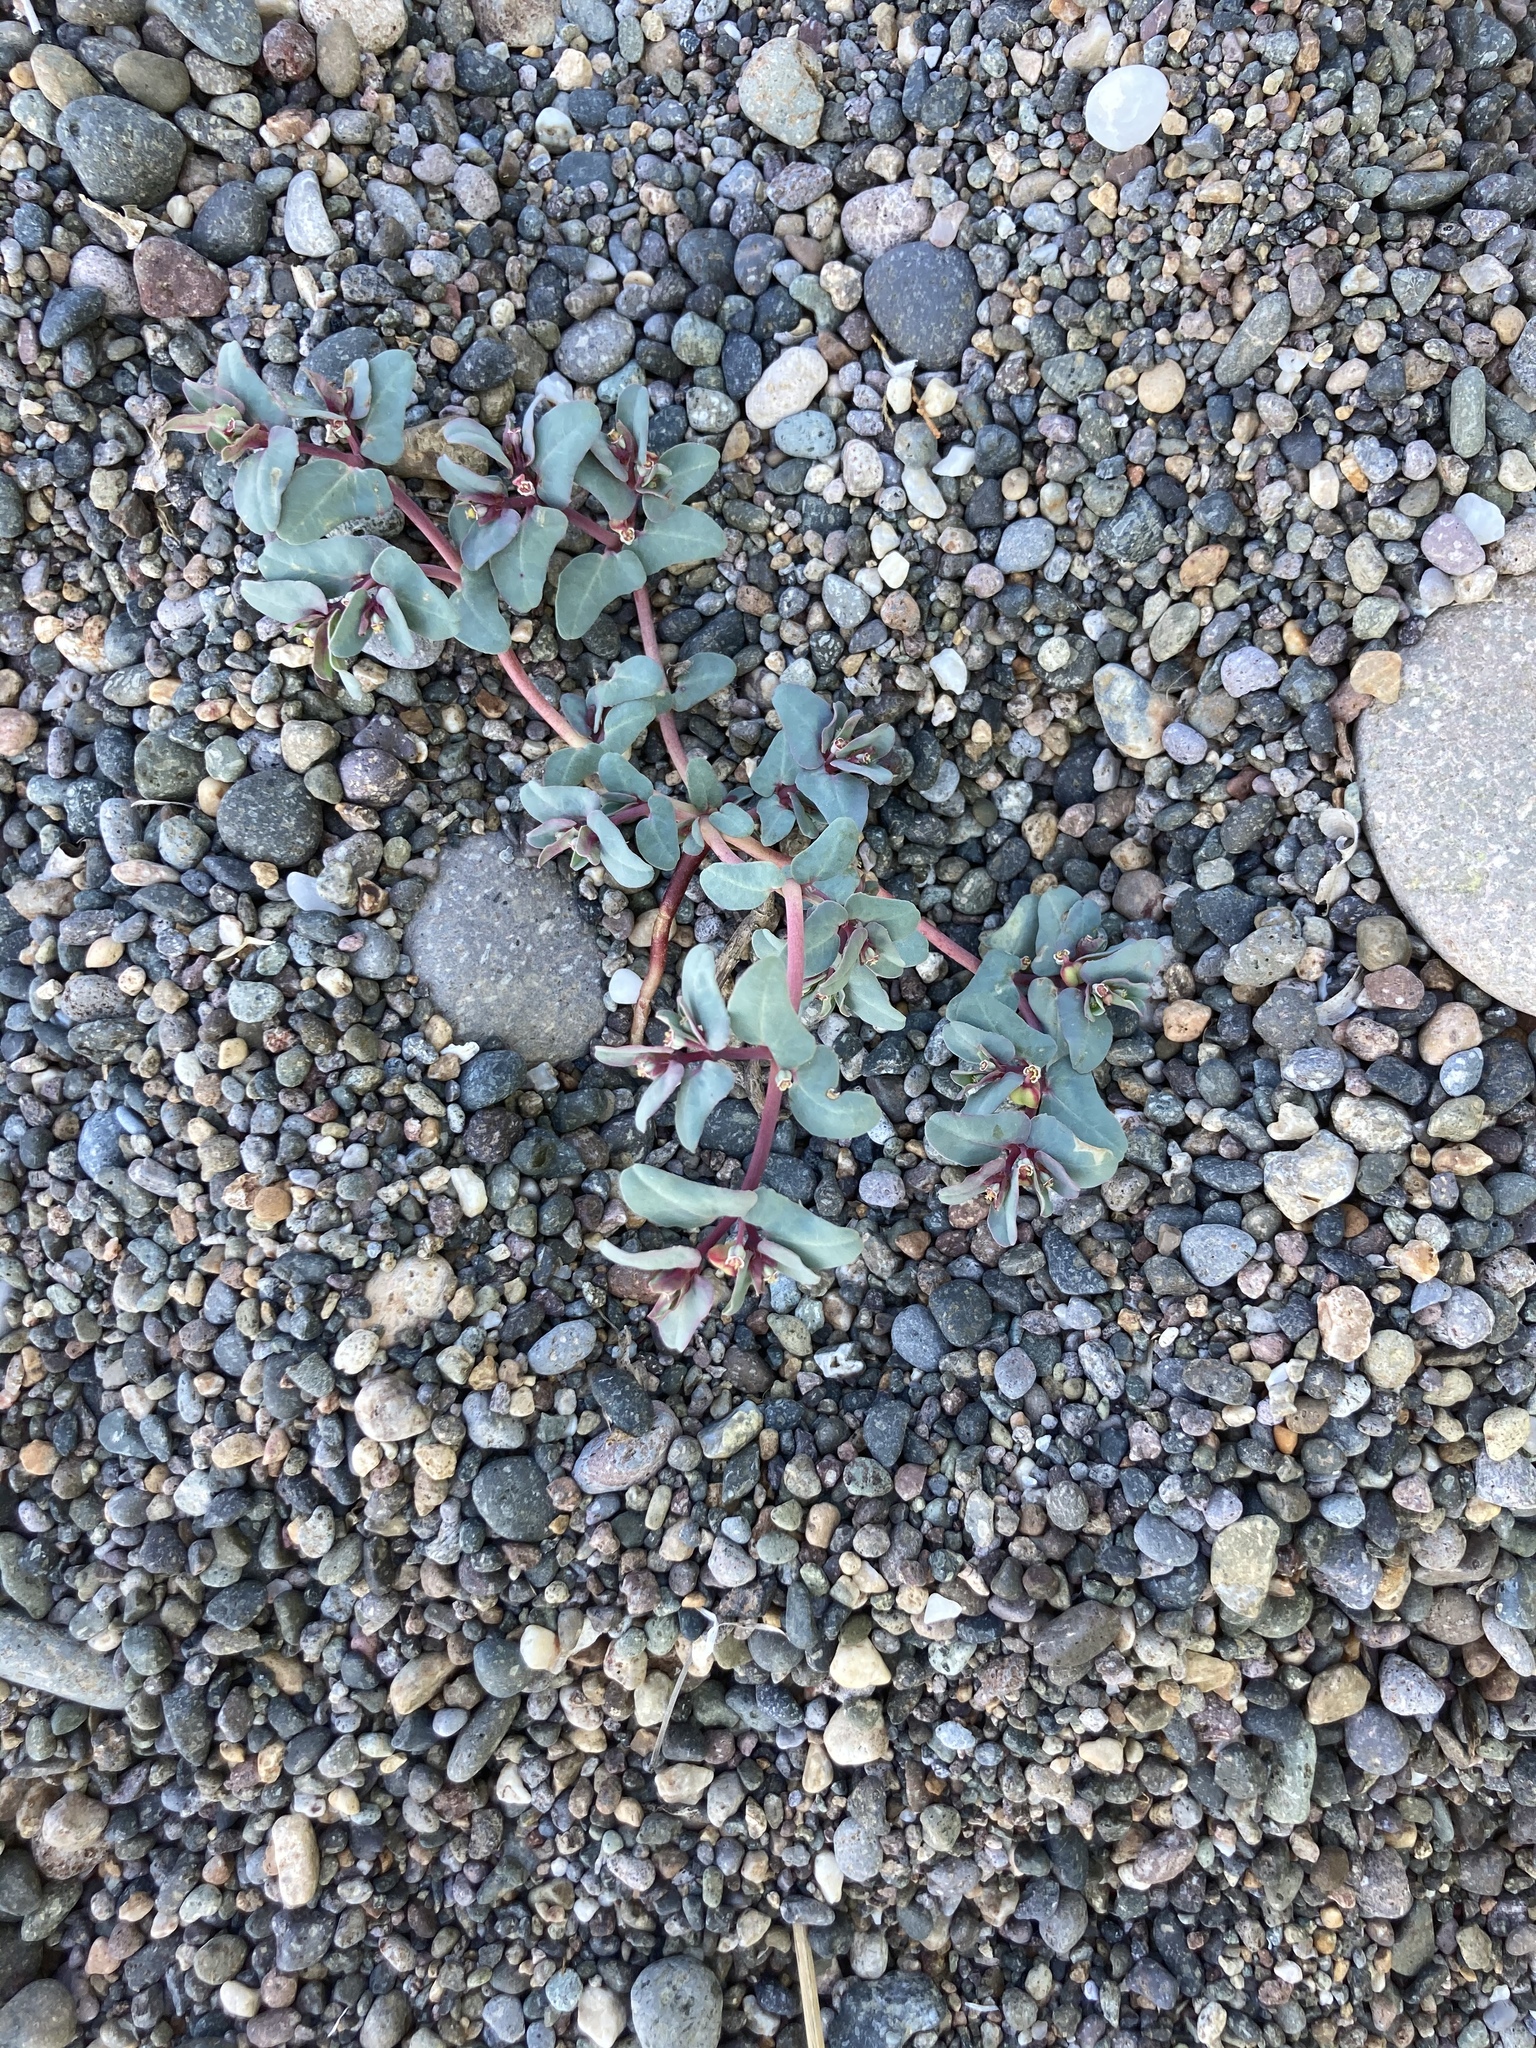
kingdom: Plantae
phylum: Tracheophyta
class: Magnoliopsida
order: Malpighiales
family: Euphorbiaceae
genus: Euphorbia
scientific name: Euphorbia peplis
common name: Purple spurge
